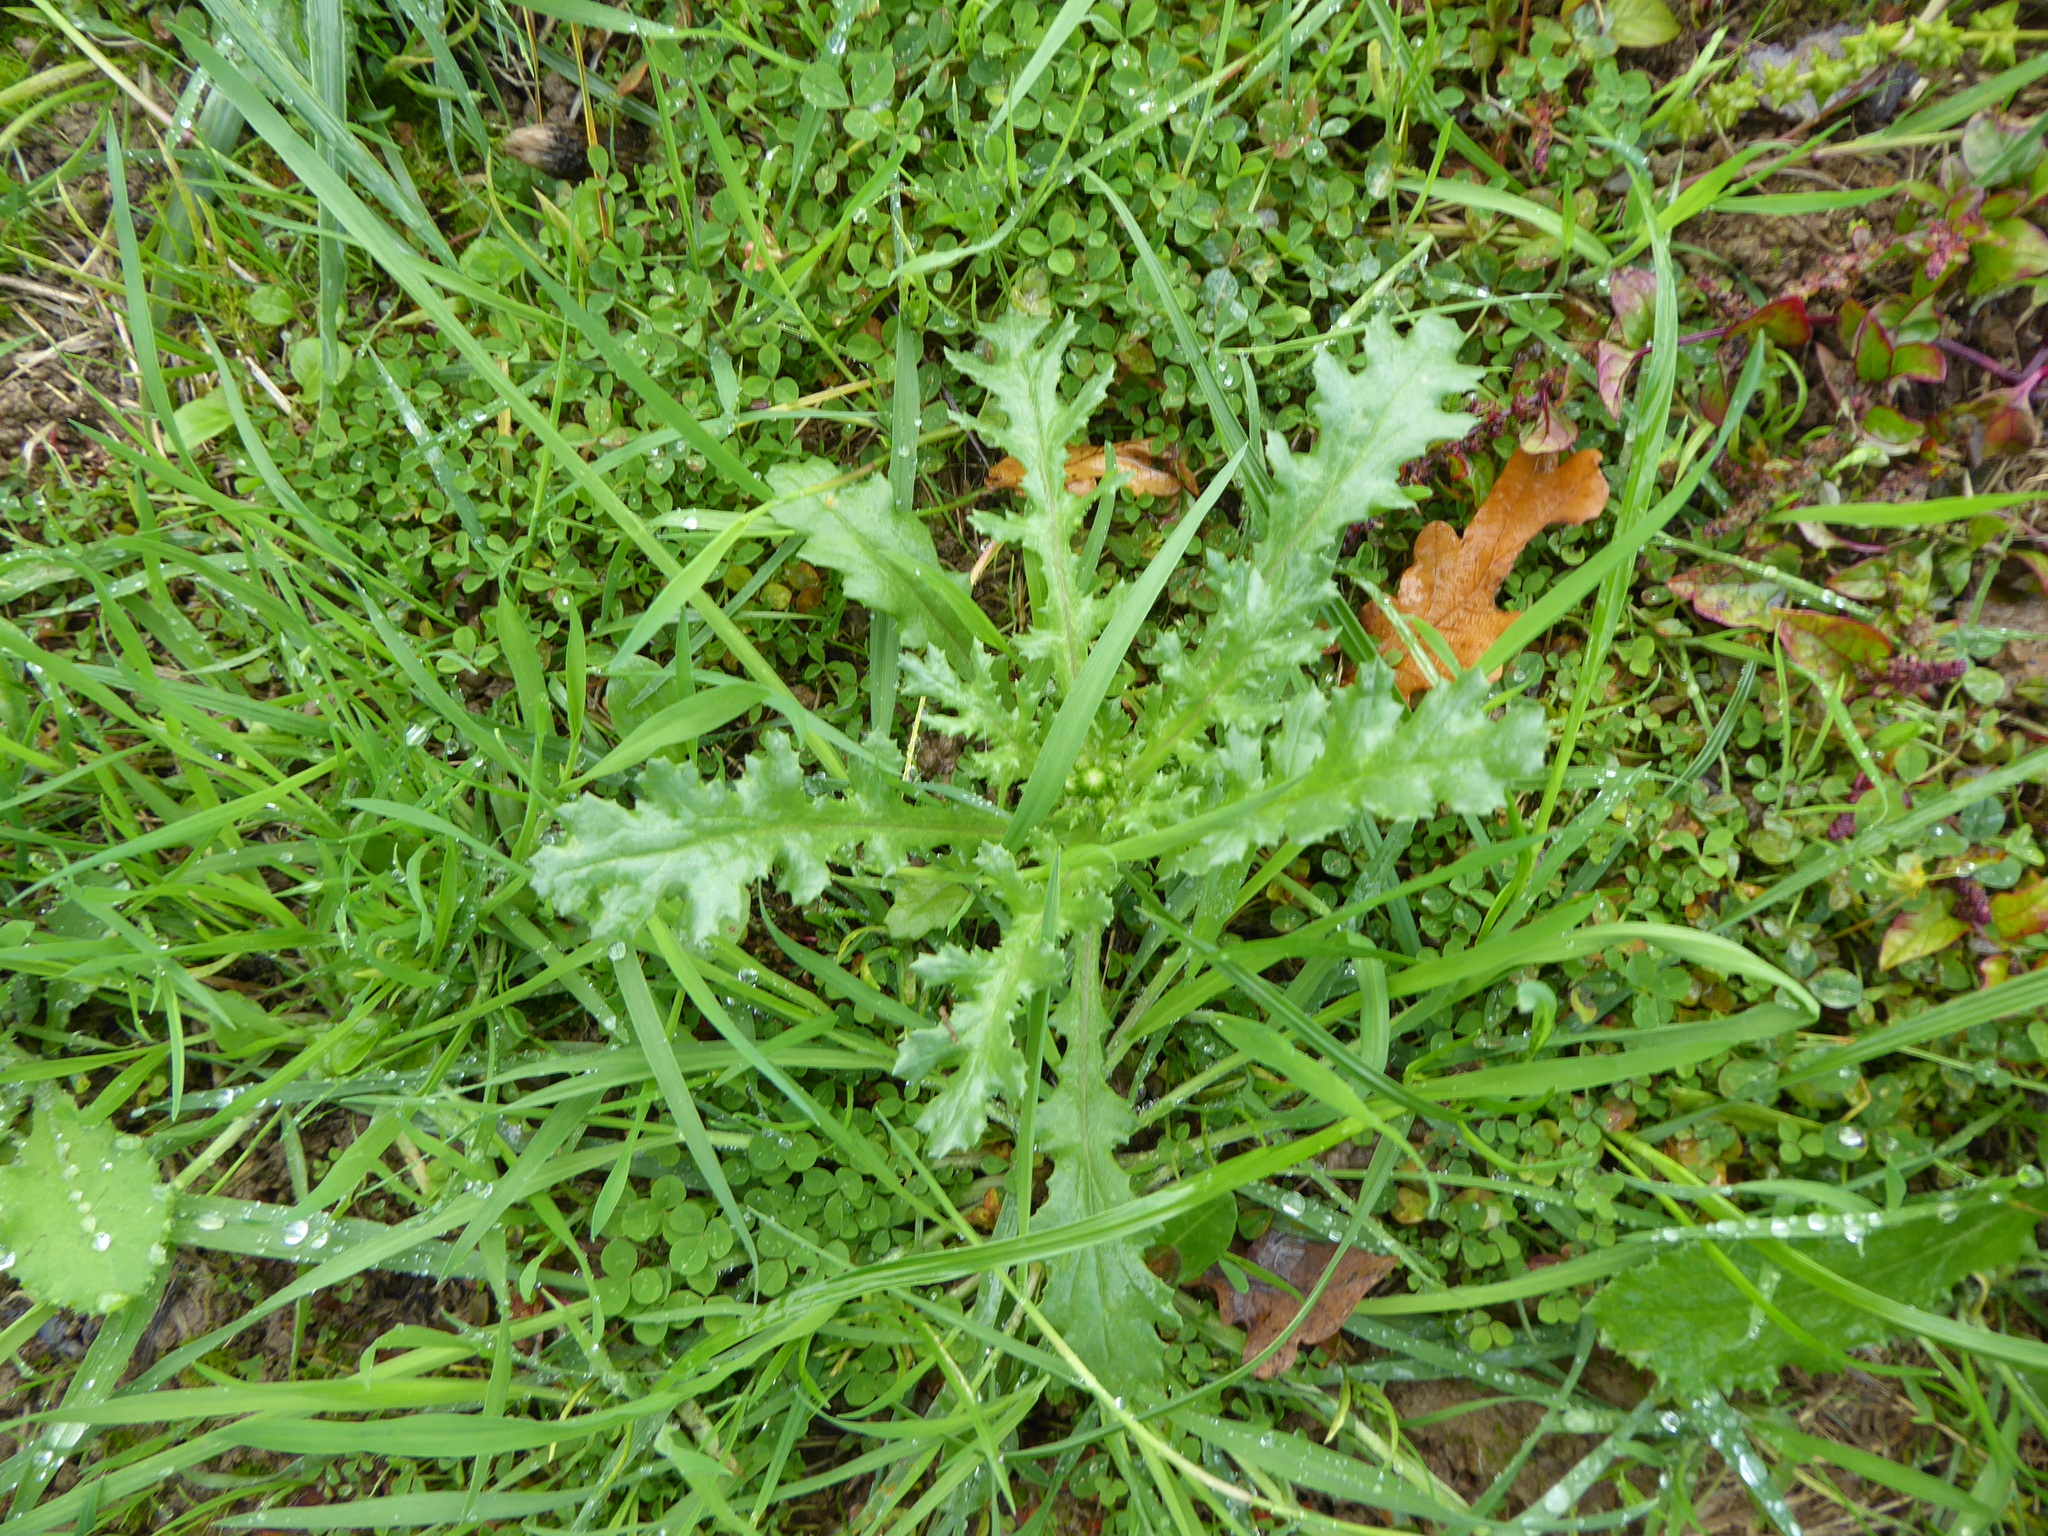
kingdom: Plantae
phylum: Tracheophyta
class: Magnoliopsida
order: Asterales
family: Asteraceae
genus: Senecio
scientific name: Senecio vulgaris
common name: Old-man-in-the-spring
